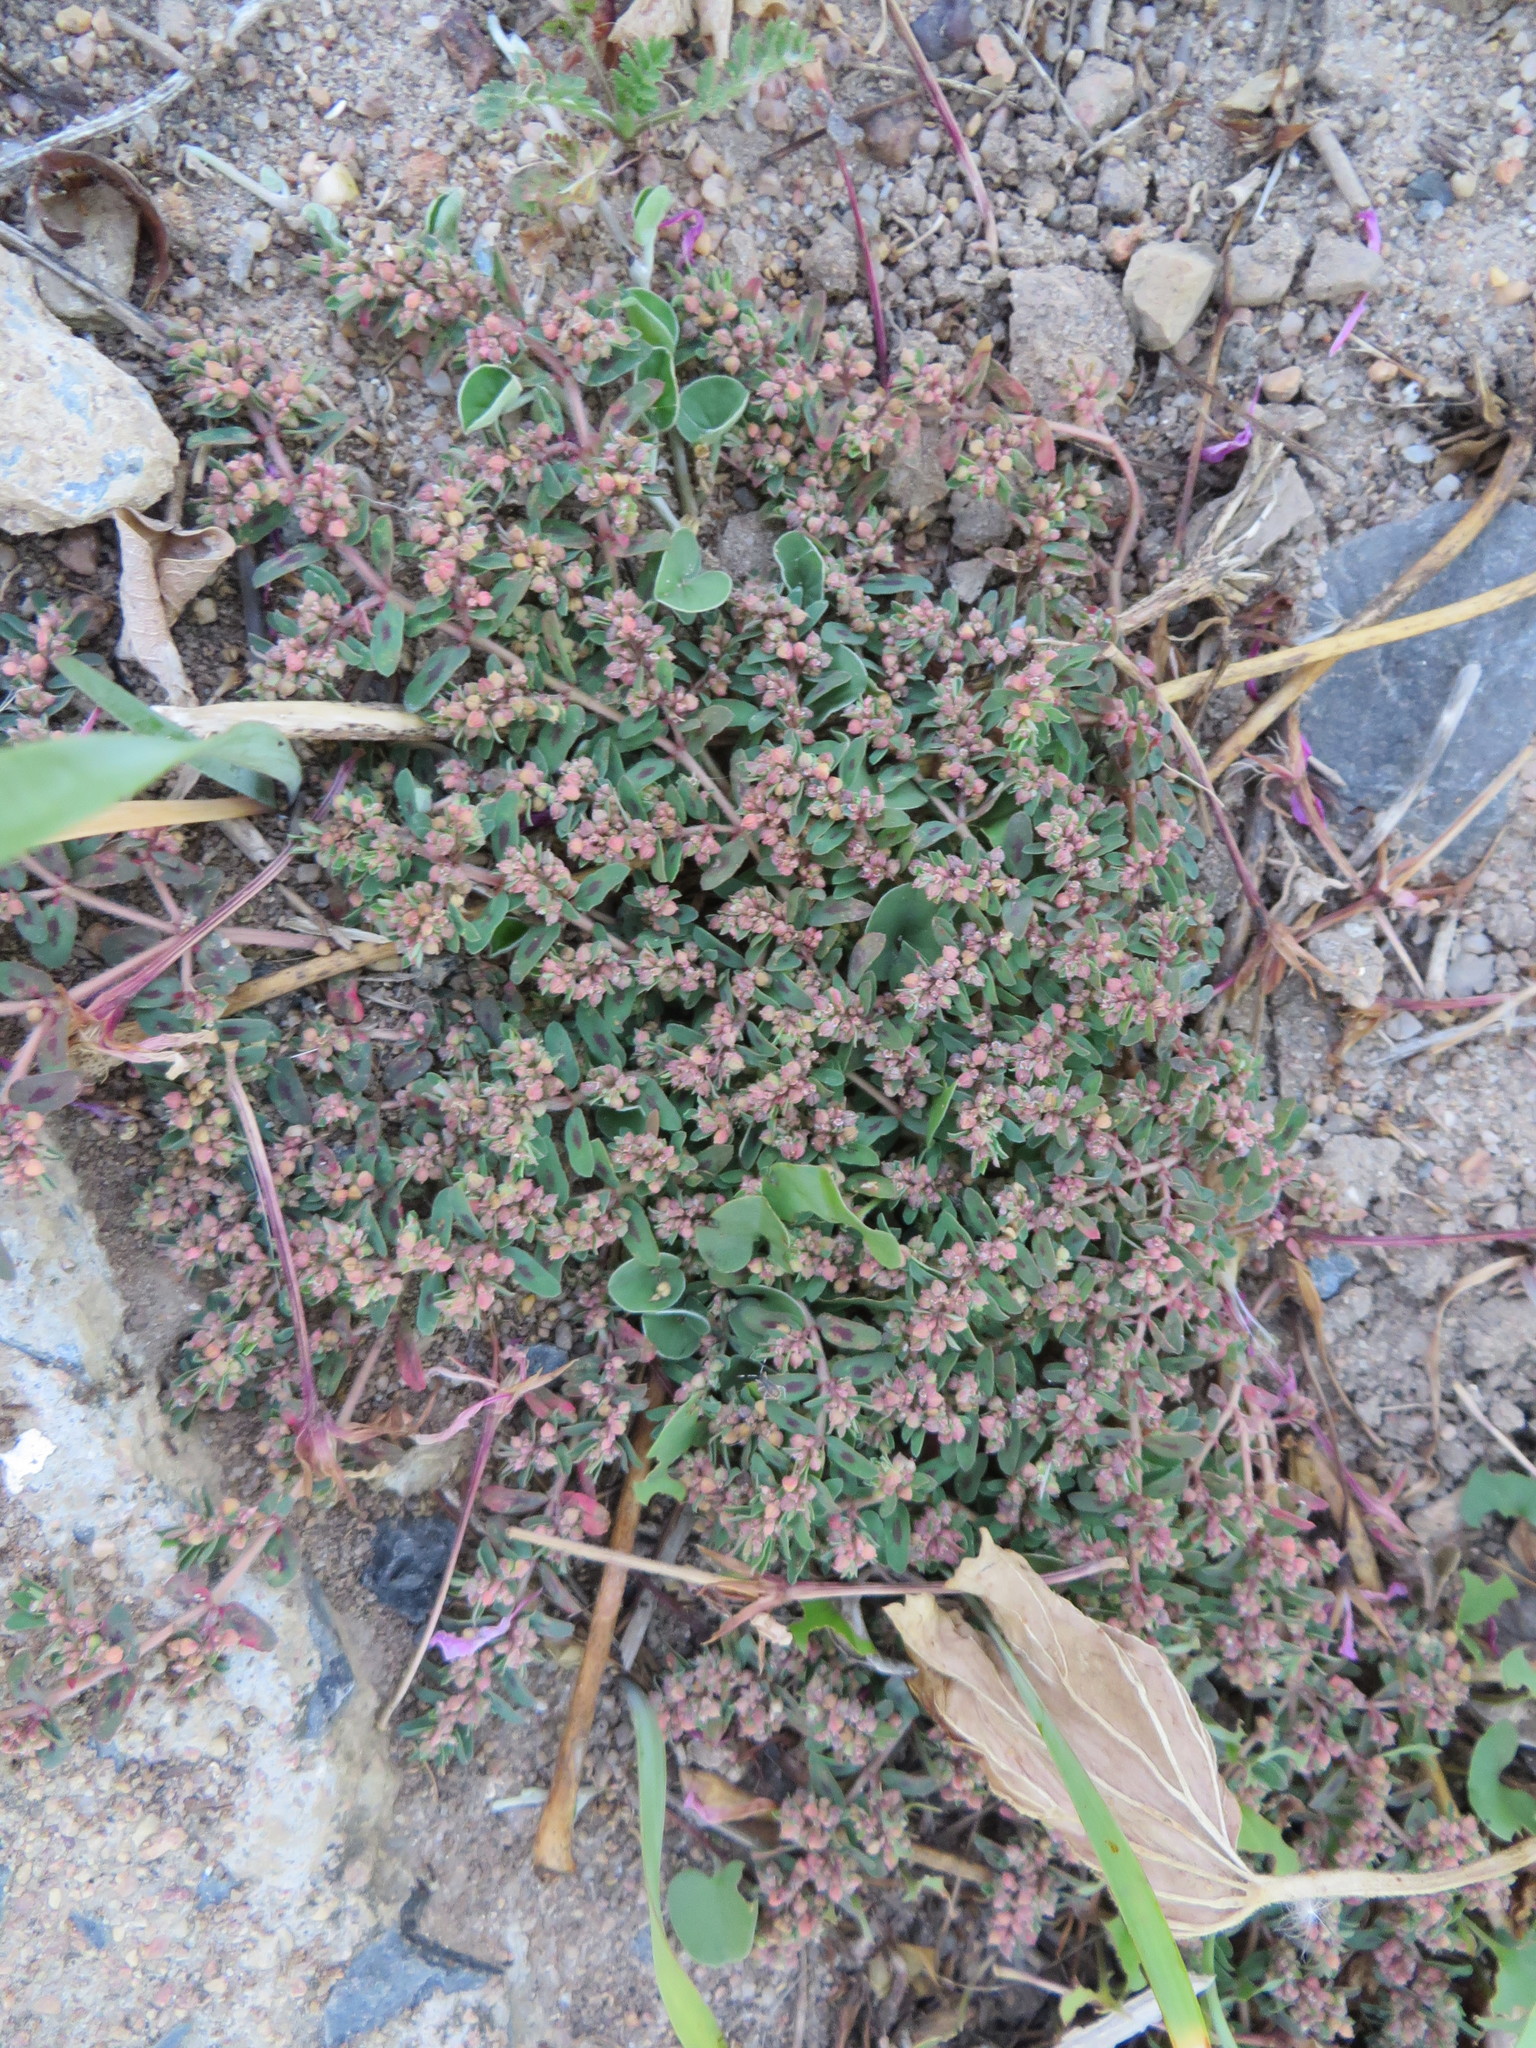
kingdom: Plantae
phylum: Tracheophyta
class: Magnoliopsida
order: Malpighiales
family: Euphorbiaceae
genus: Euphorbia
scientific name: Euphorbia maculata
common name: Spotted spurge
